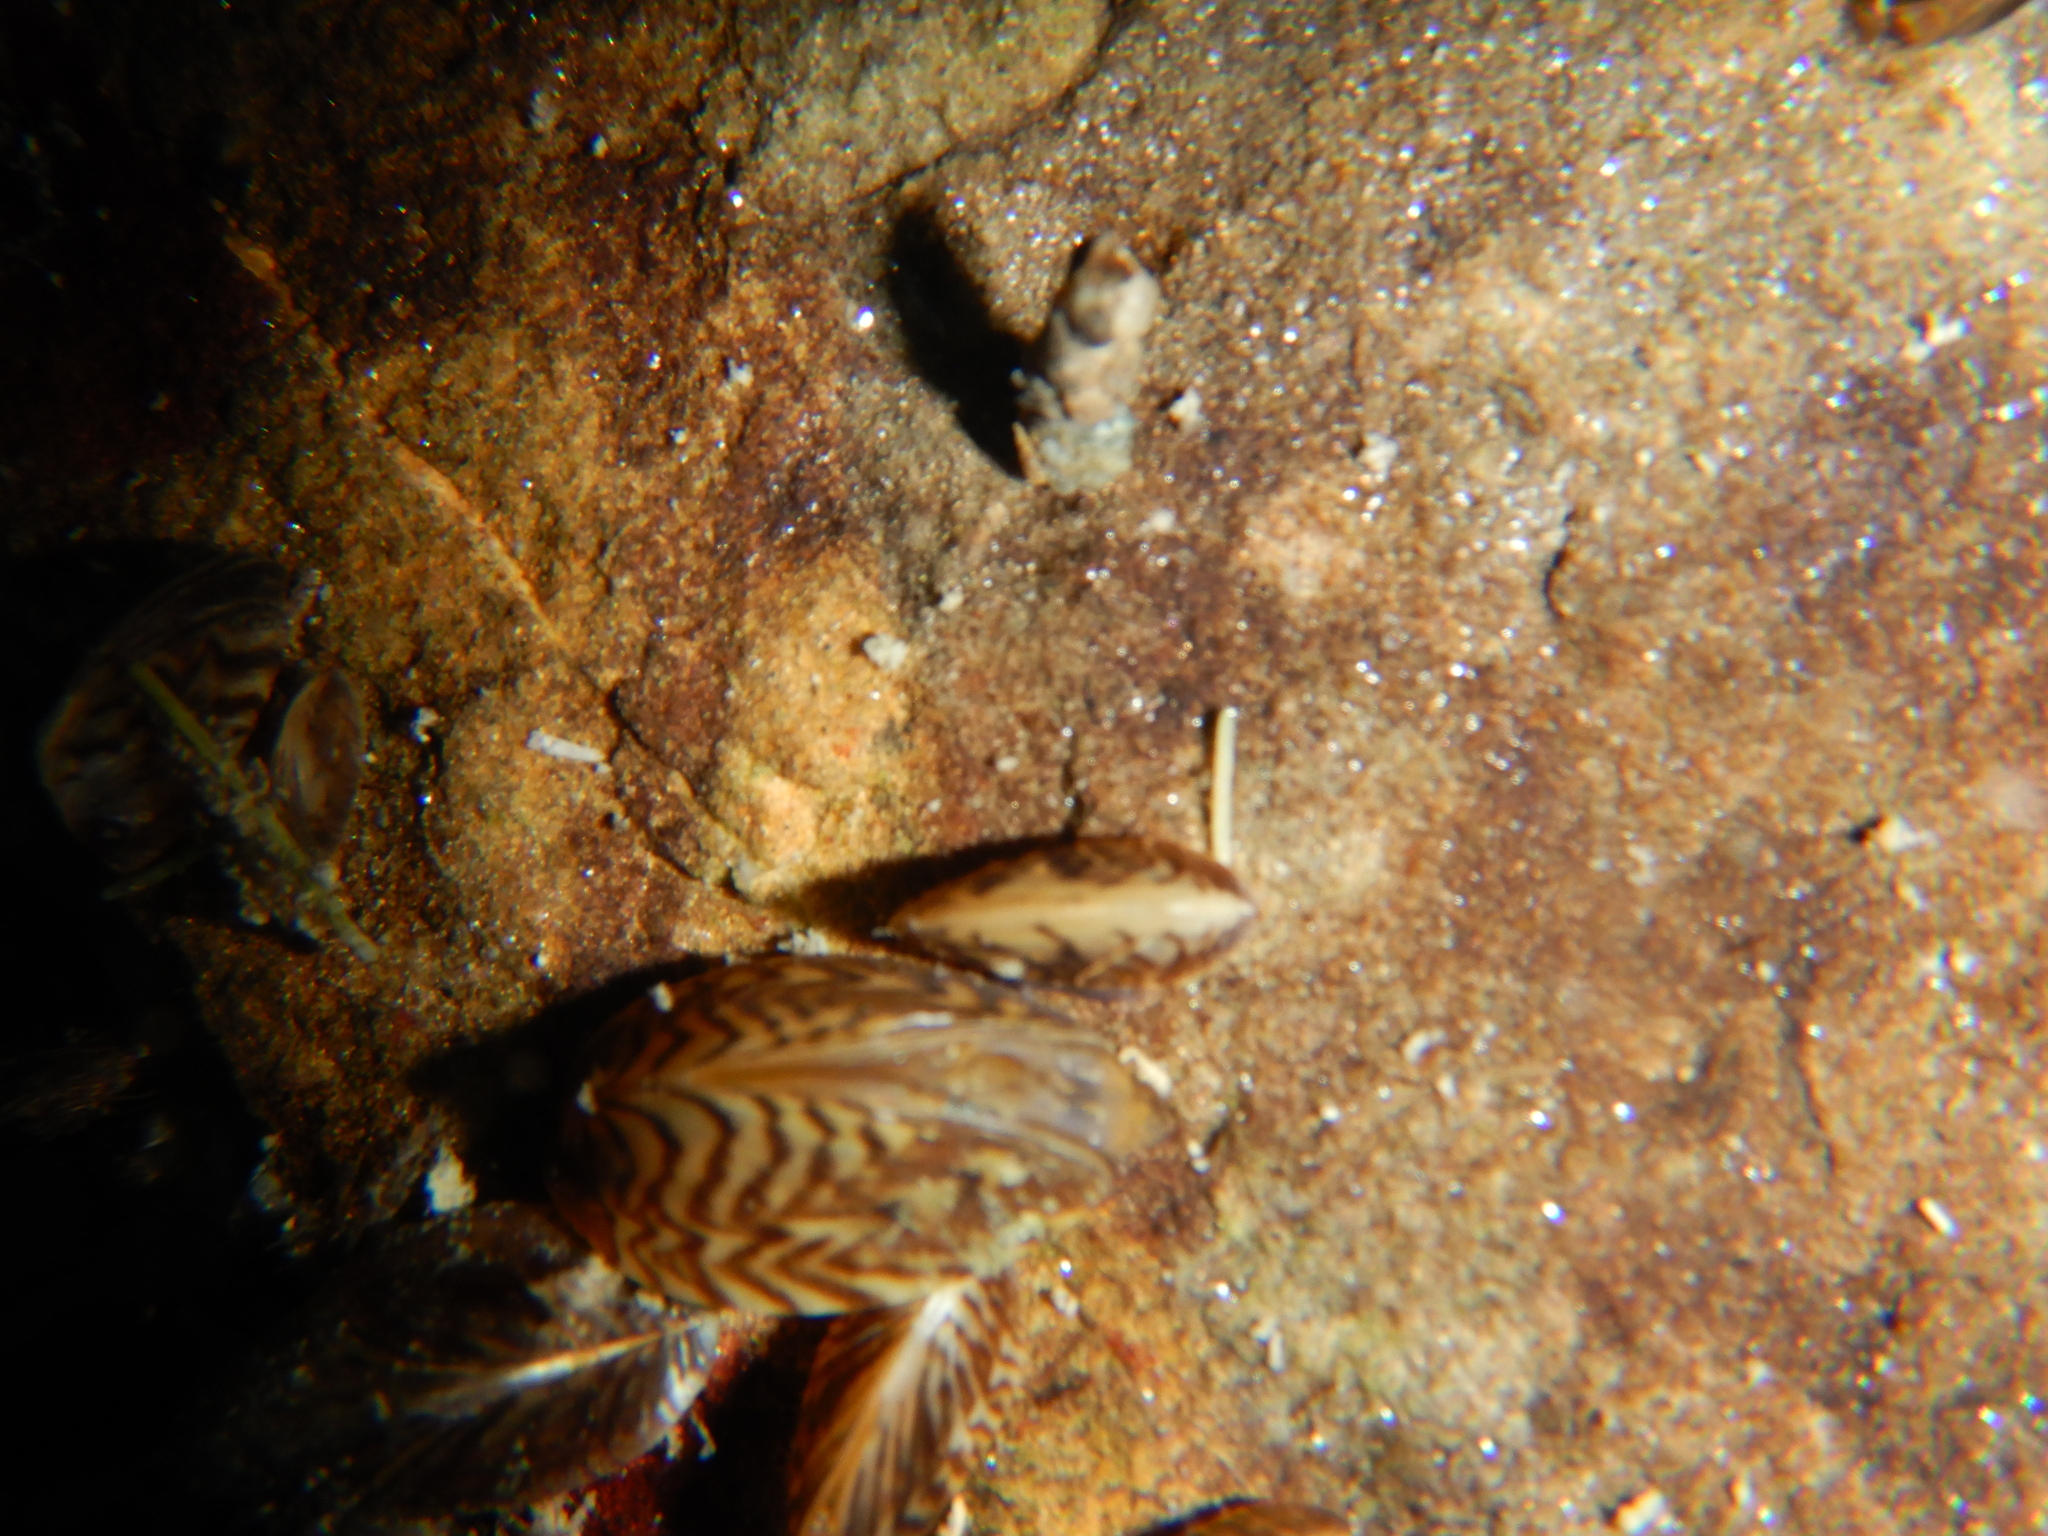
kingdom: Animalia
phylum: Mollusca
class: Bivalvia
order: Myida
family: Dreissenidae
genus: Dreissena
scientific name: Dreissena polymorpha
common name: Zebra mussel
